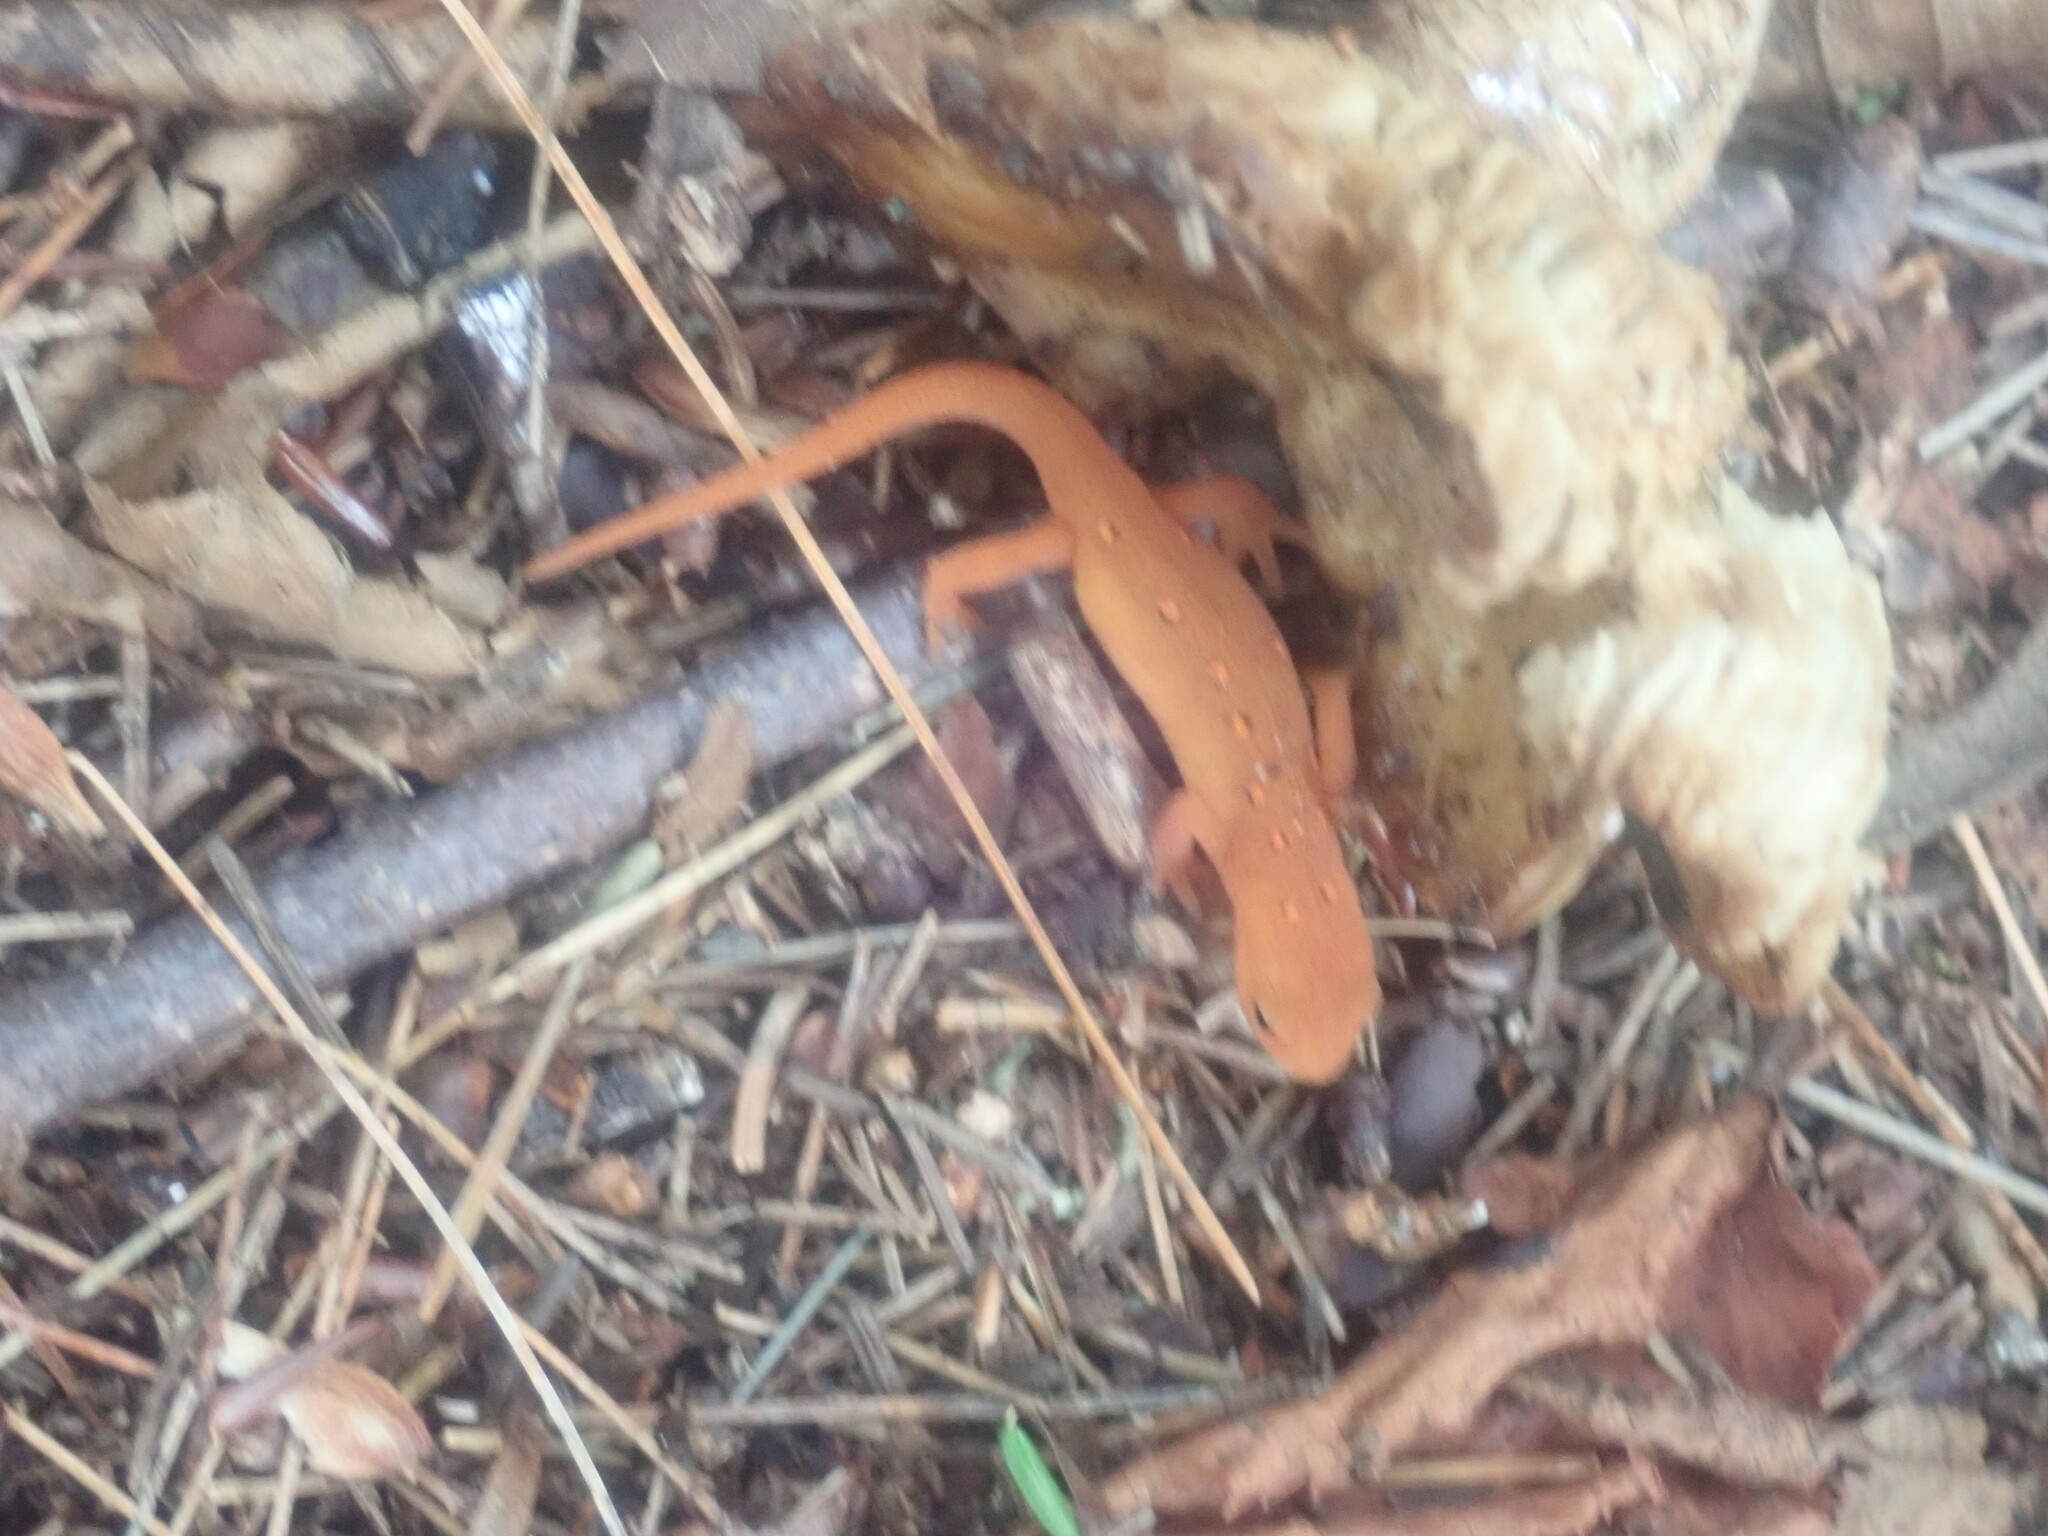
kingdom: Animalia
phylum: Chordata
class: Amphibia
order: Caudata
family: Salamandridae
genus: Notophthalmus
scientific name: Notophthalmus viridescens
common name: Eastern newt
